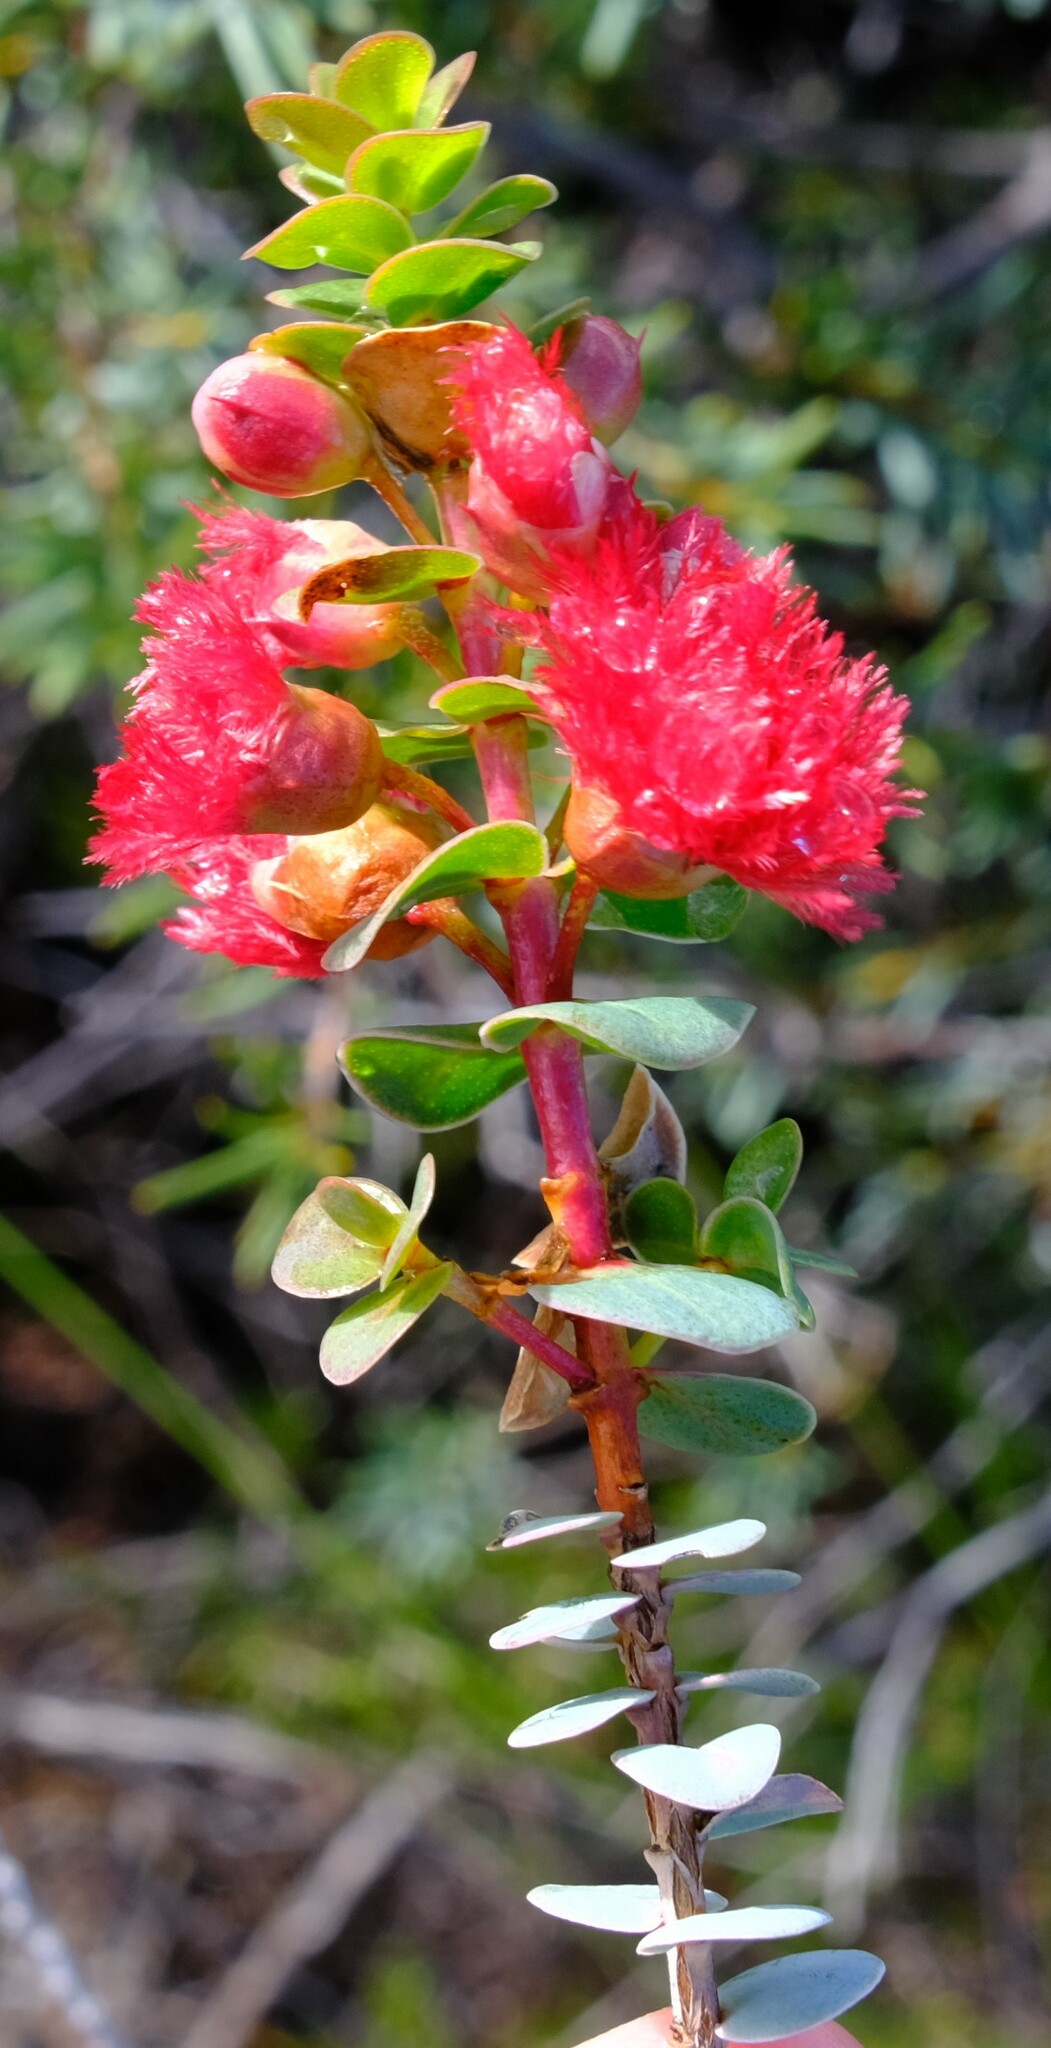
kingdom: Plantae
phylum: Tracheophyta
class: Magnoliopsida
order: Myrtales
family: Myrtaceae
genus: Verticordia
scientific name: Verticordia grandis
